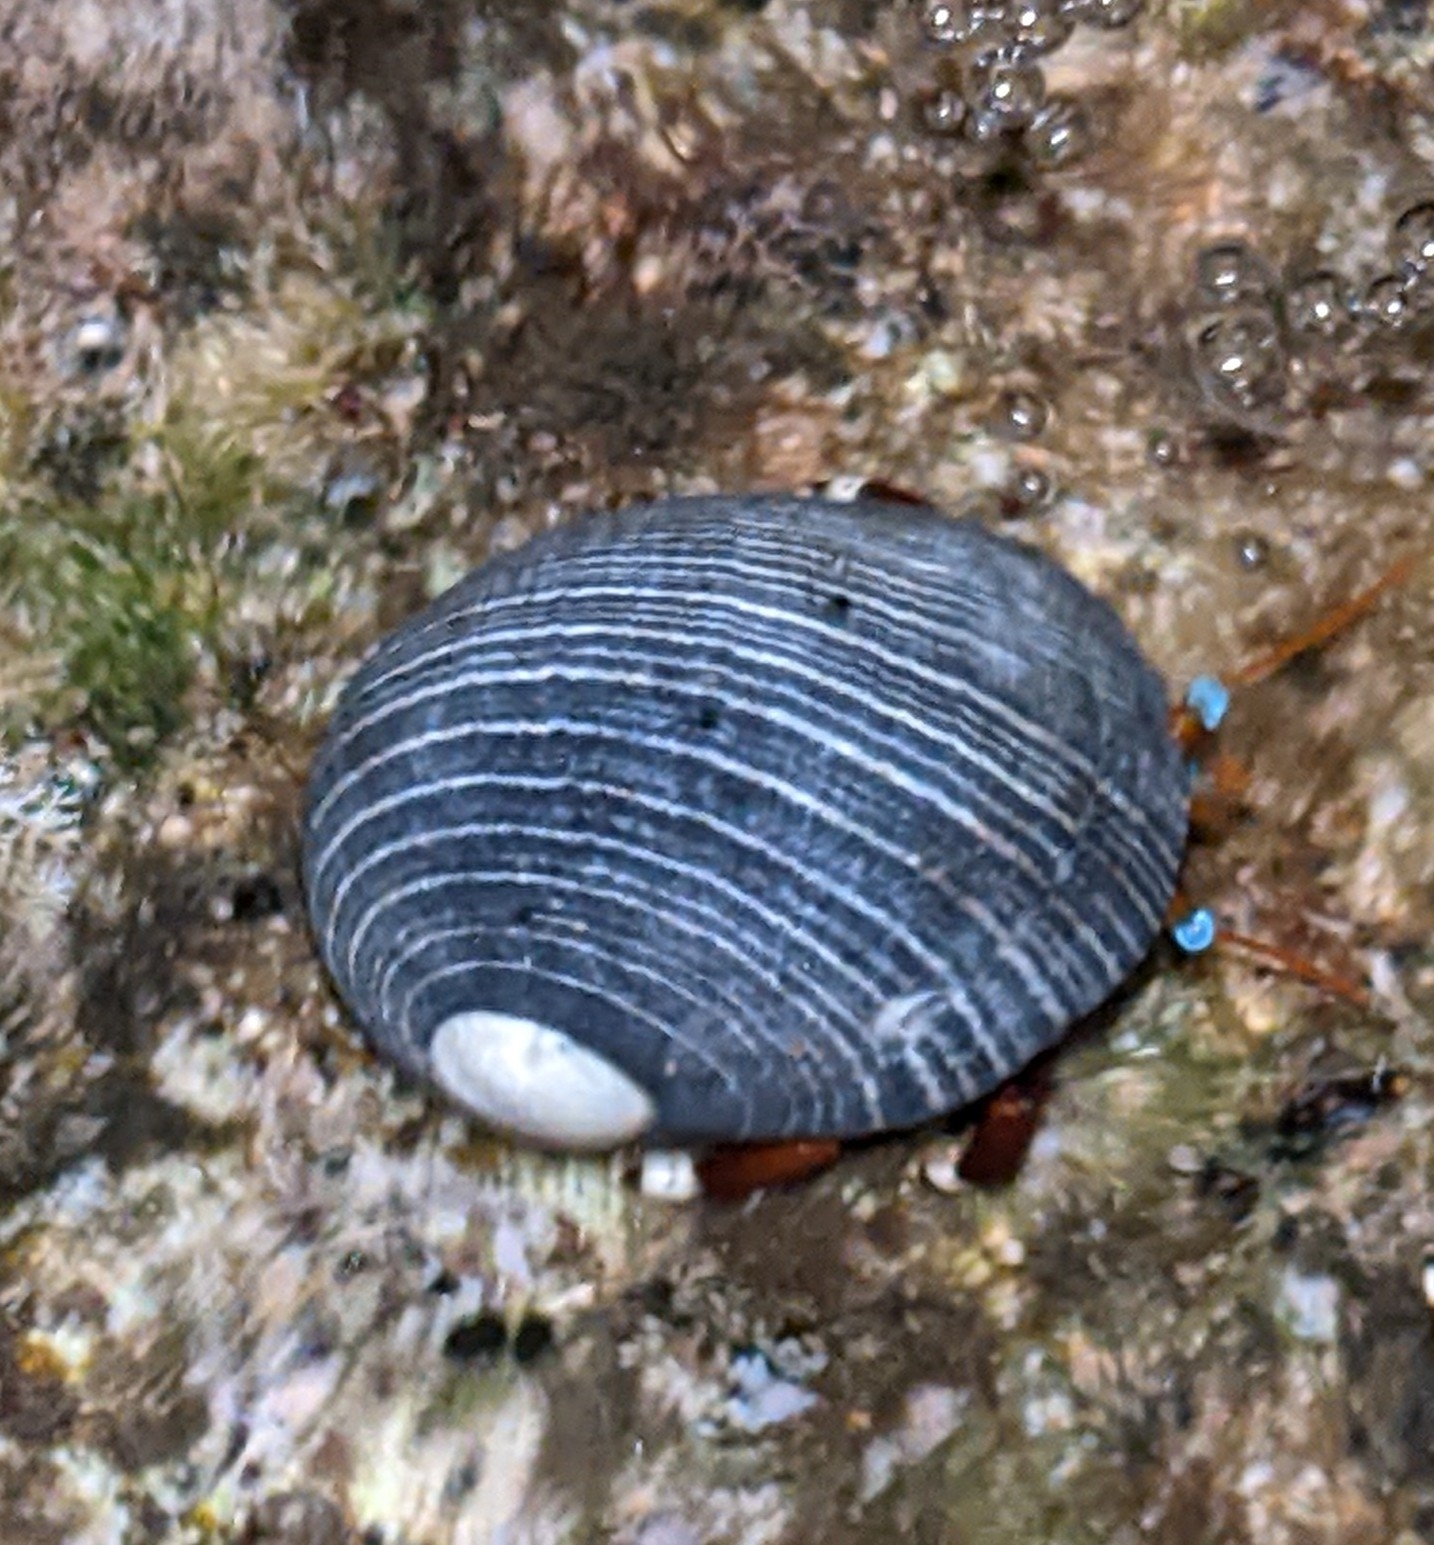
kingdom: Animalia
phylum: Mollusca
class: Gastropoda
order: Cycloneritida
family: Neritidae
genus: Nerita
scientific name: Nerita picea
